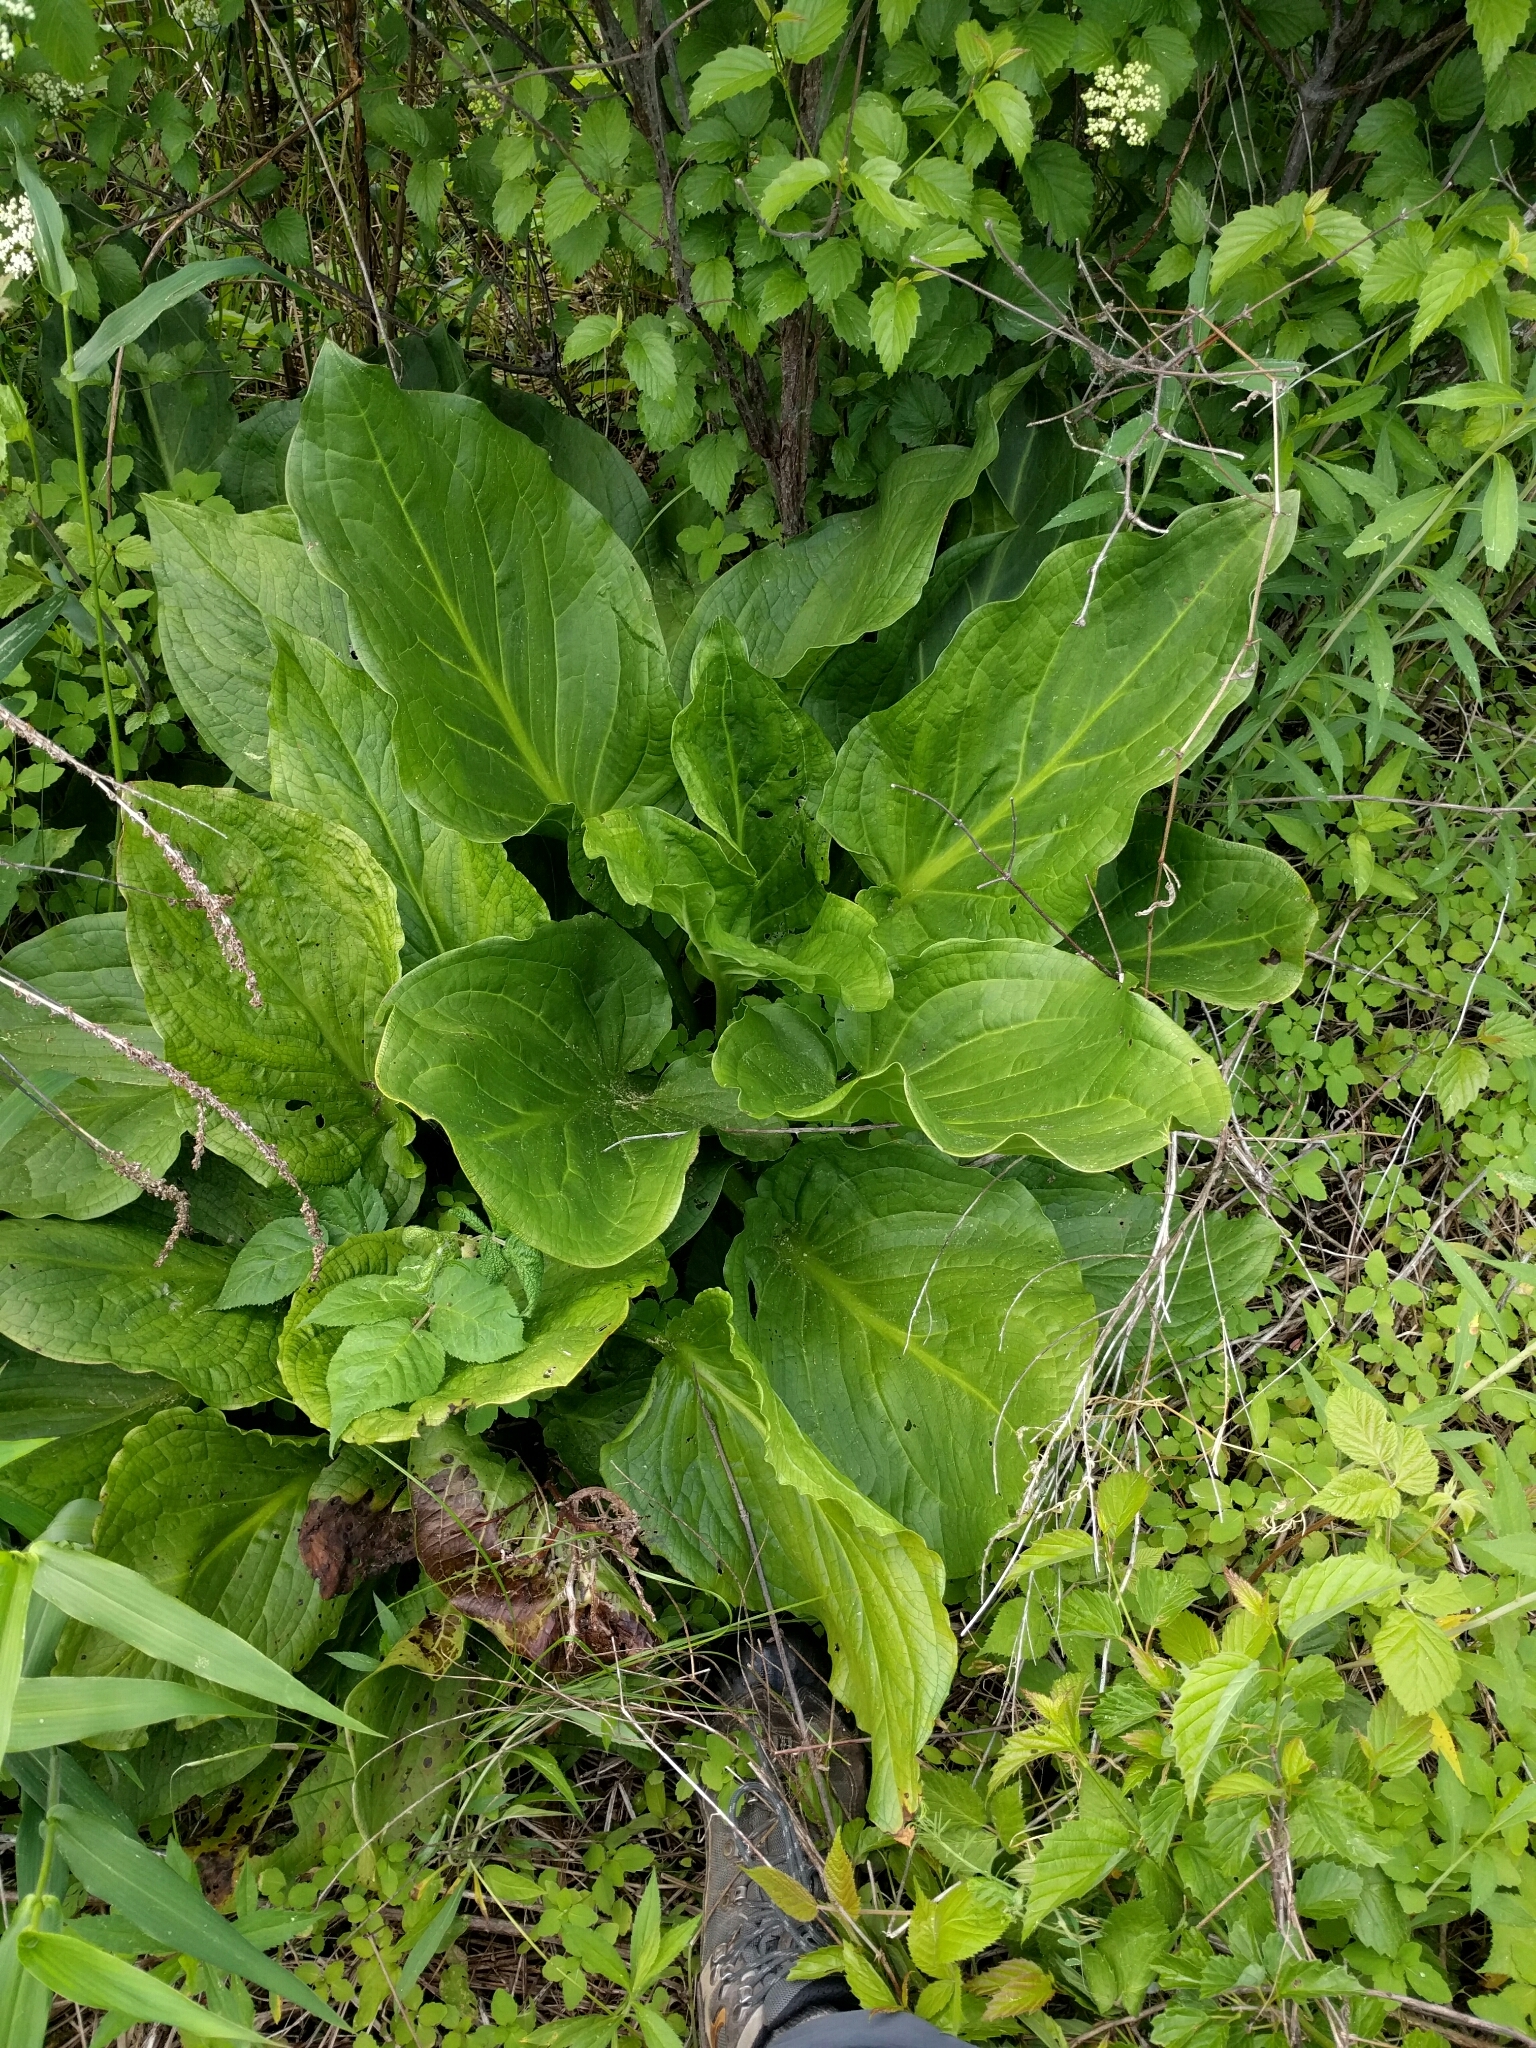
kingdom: Plantae
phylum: Tracheophyta
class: Liliopsida
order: Alismatales
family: Araceae
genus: Symplocarpus
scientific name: Symplocarpus foetidus
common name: Eastern skunk cabbage
